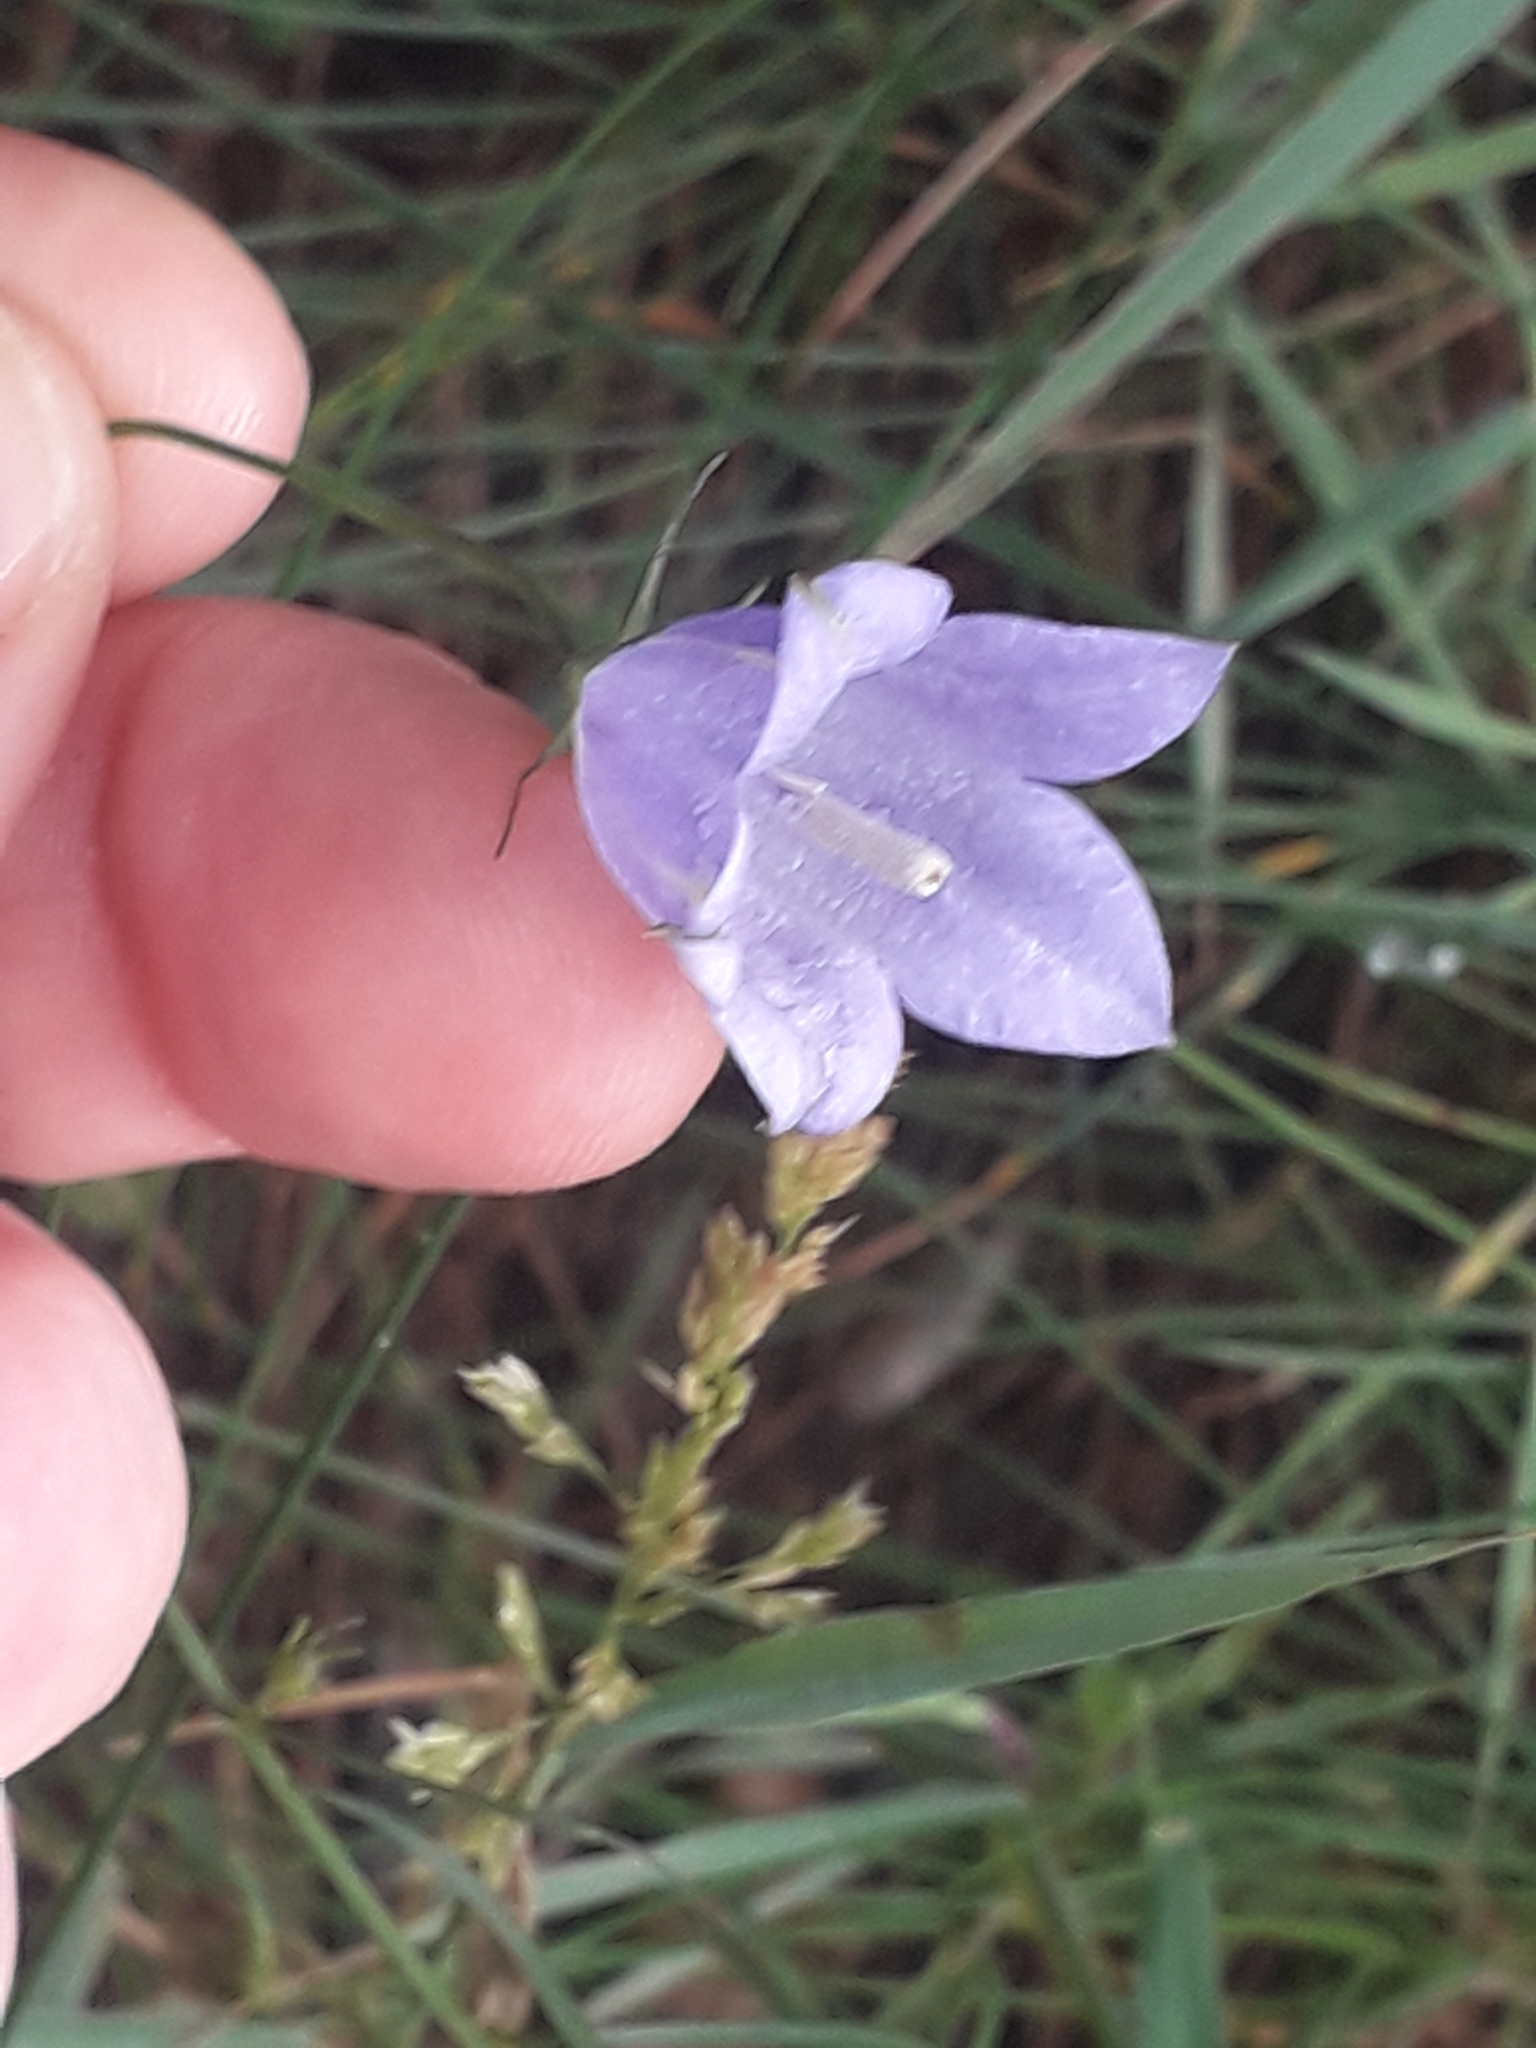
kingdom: Plantae
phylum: Tracheophyta
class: Magnoliopsida
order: Asterales
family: Campanulaceae
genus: Campanula
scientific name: Campanula rotundifolia
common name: Harebell
